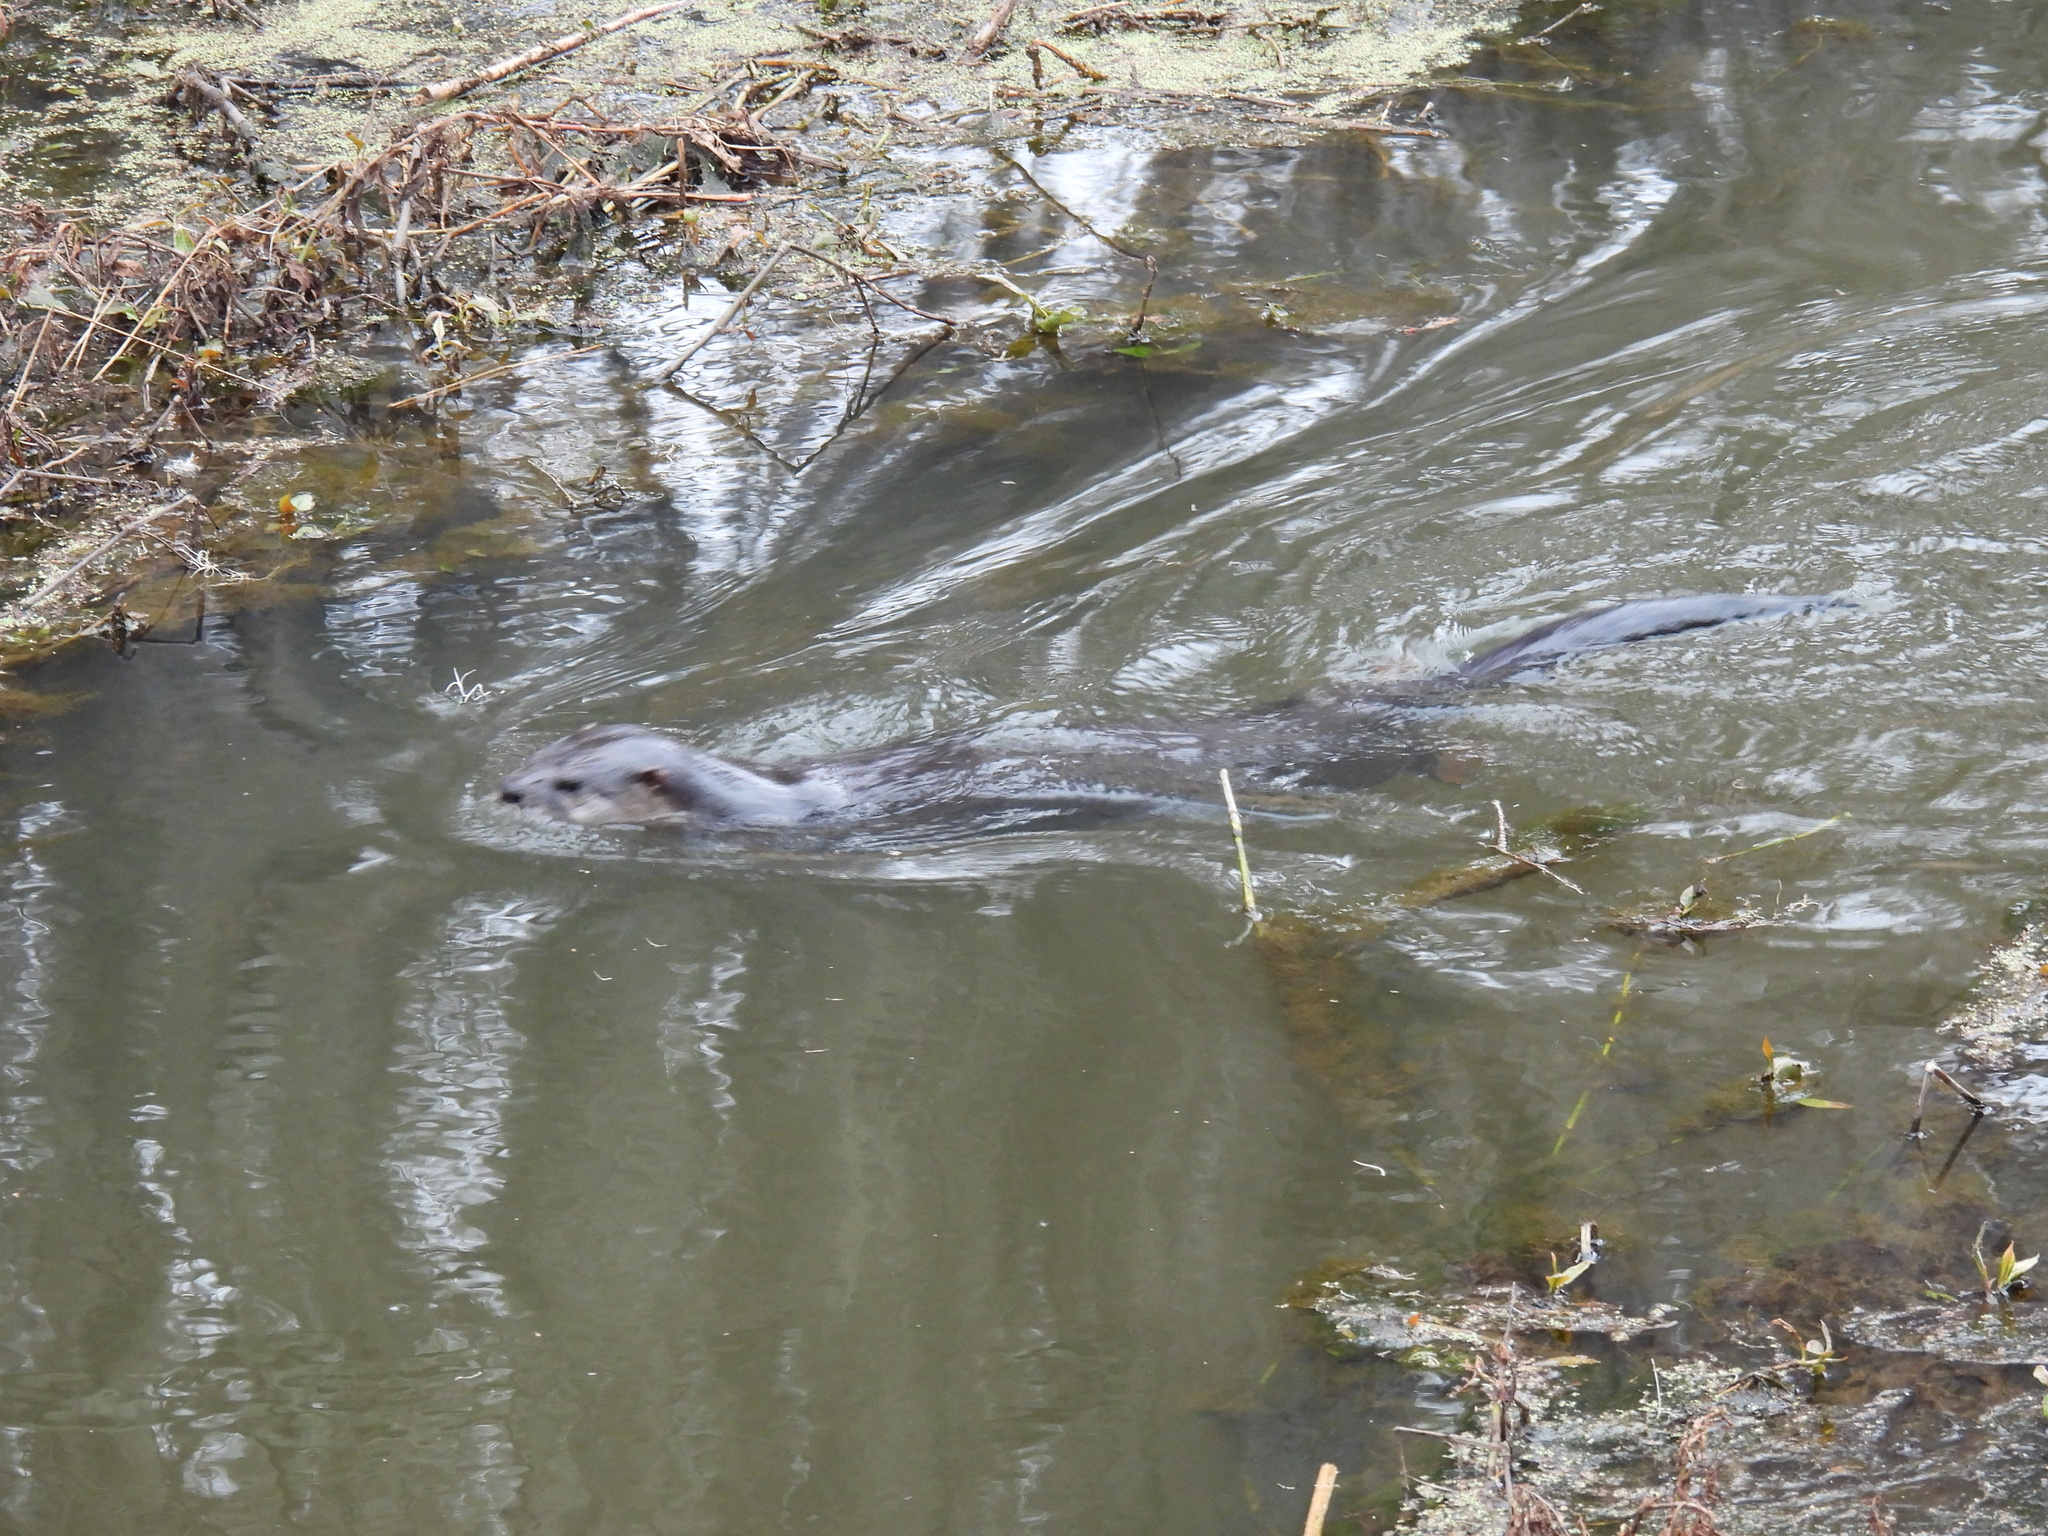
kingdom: Animalia
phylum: Chordata
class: Mammalia
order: Carnivora
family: Mustelidae
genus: Lontra
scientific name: Lontra canadensis
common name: North american river otter
